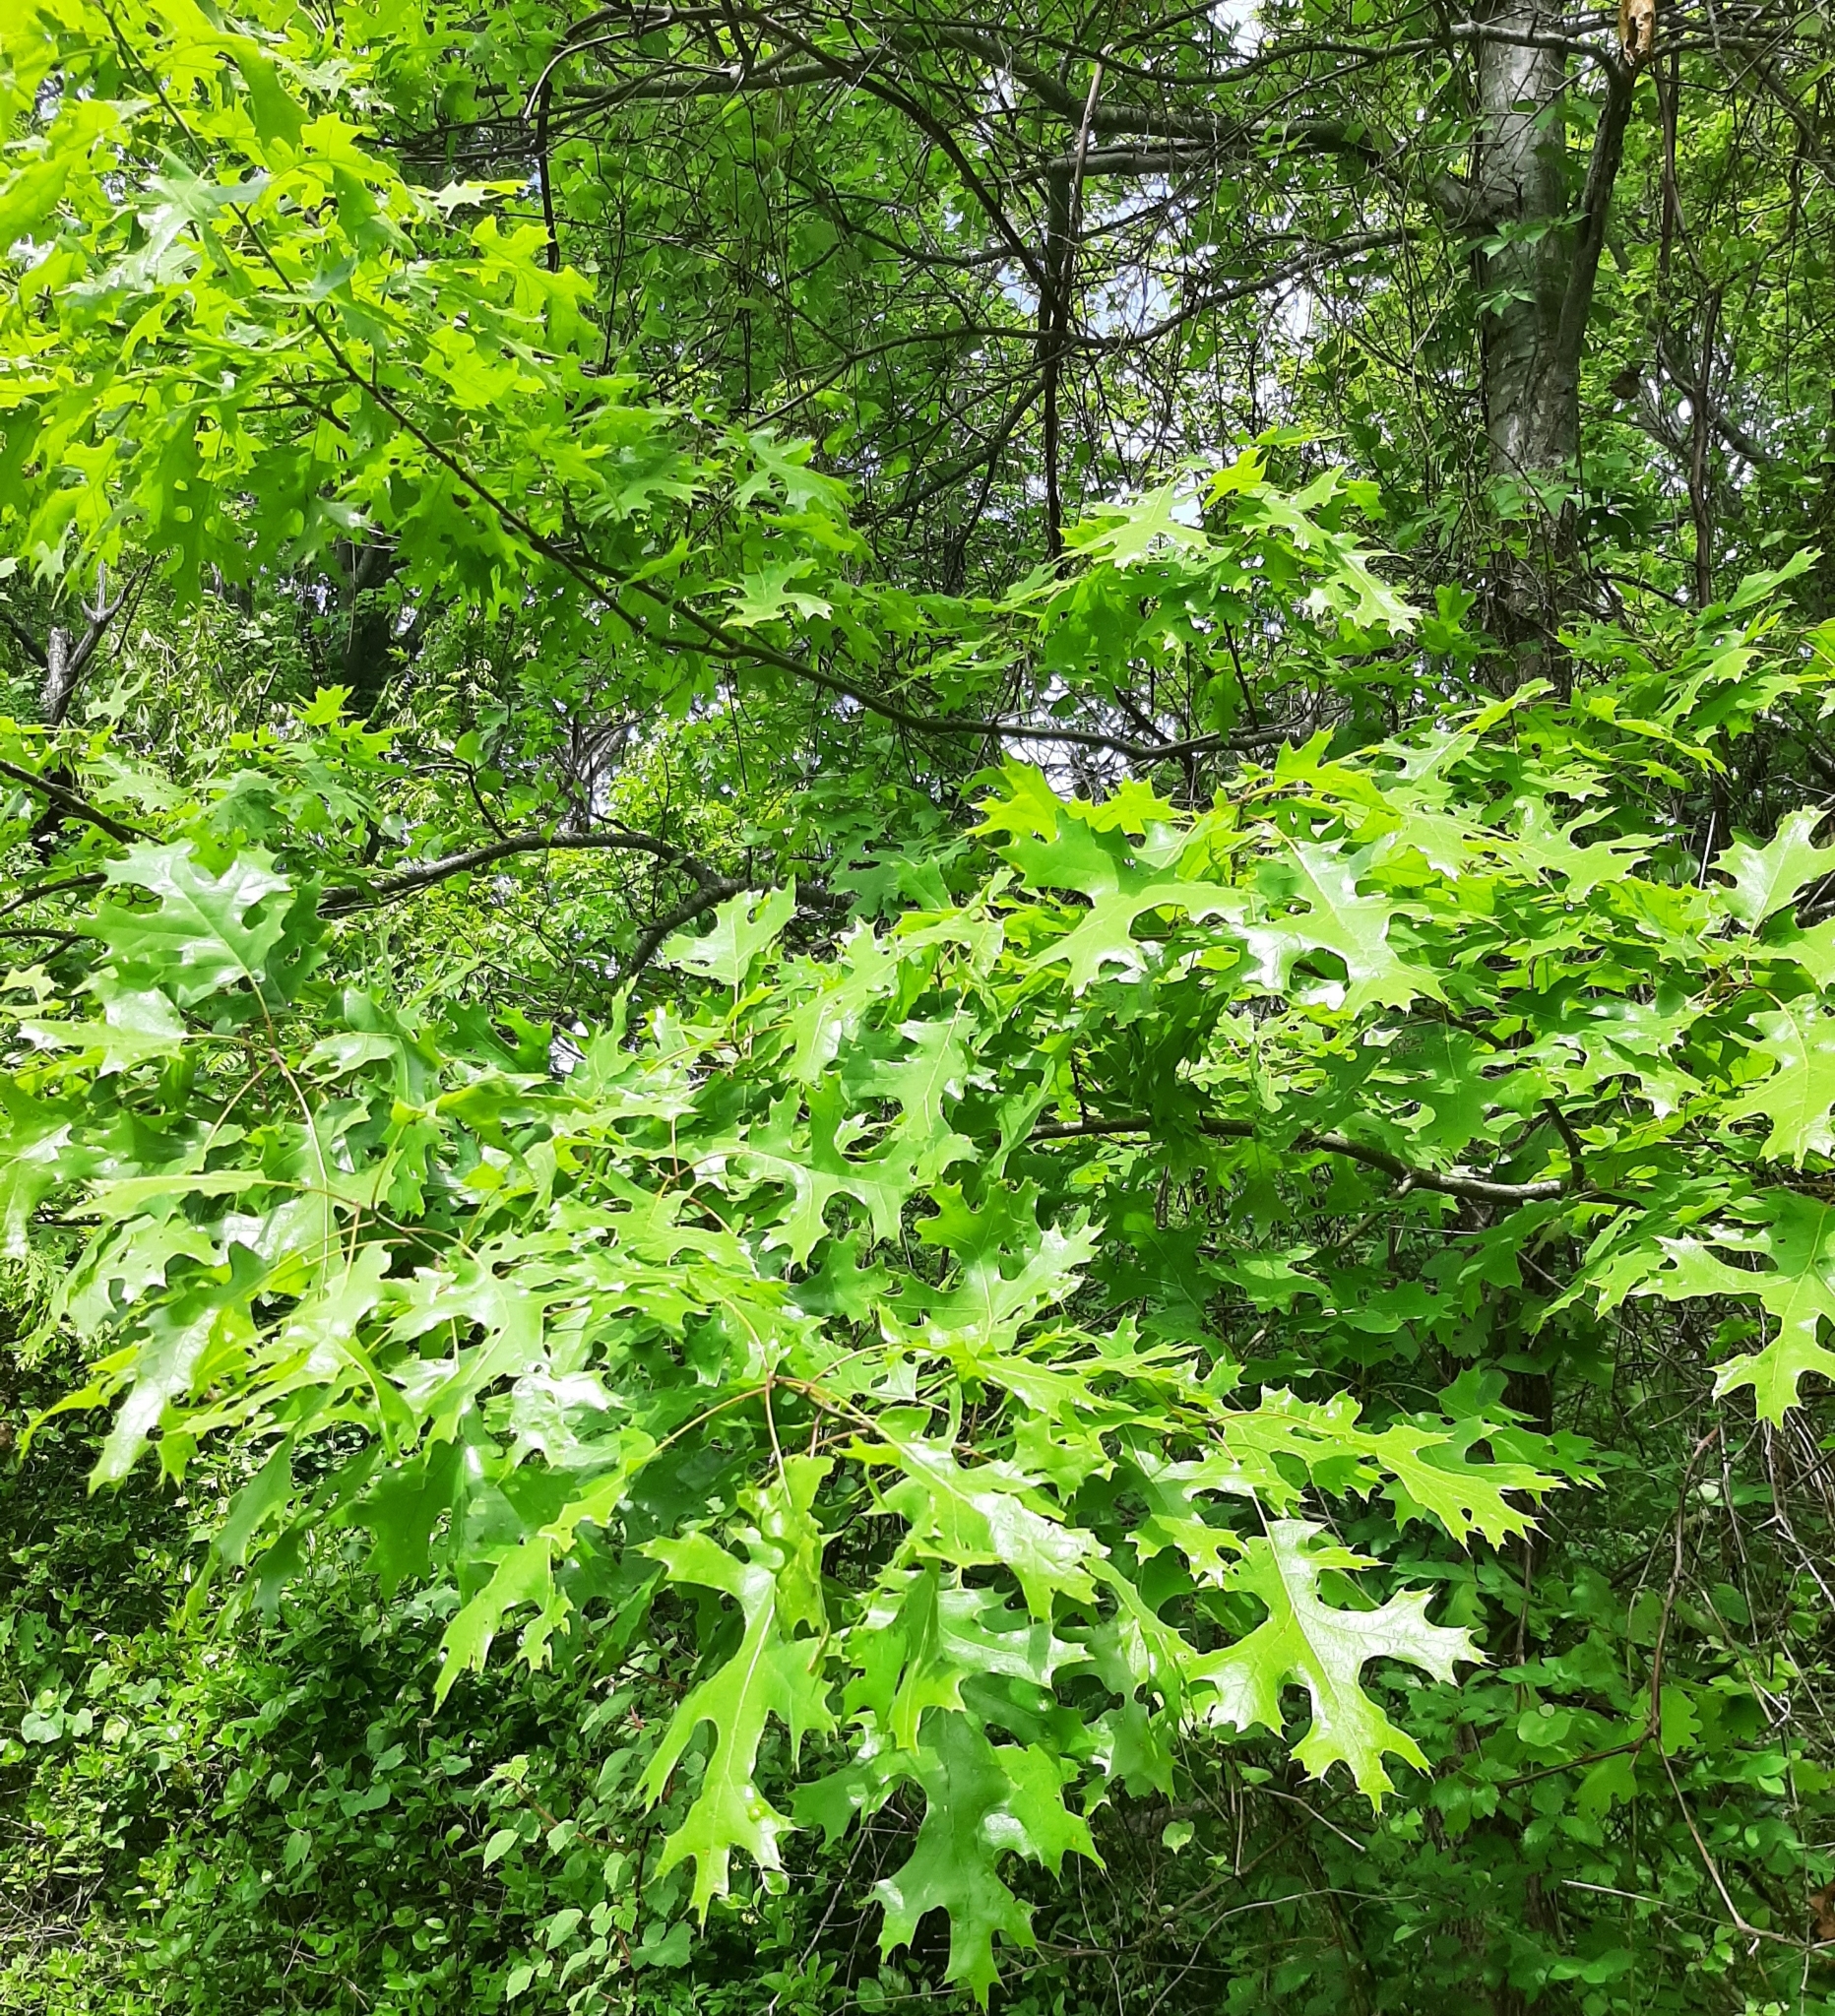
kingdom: Animalia
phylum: Arthropoda
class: Insecta
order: Hymenoptera
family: Cynipidae
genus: Amphibolips
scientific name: Amphibolips
